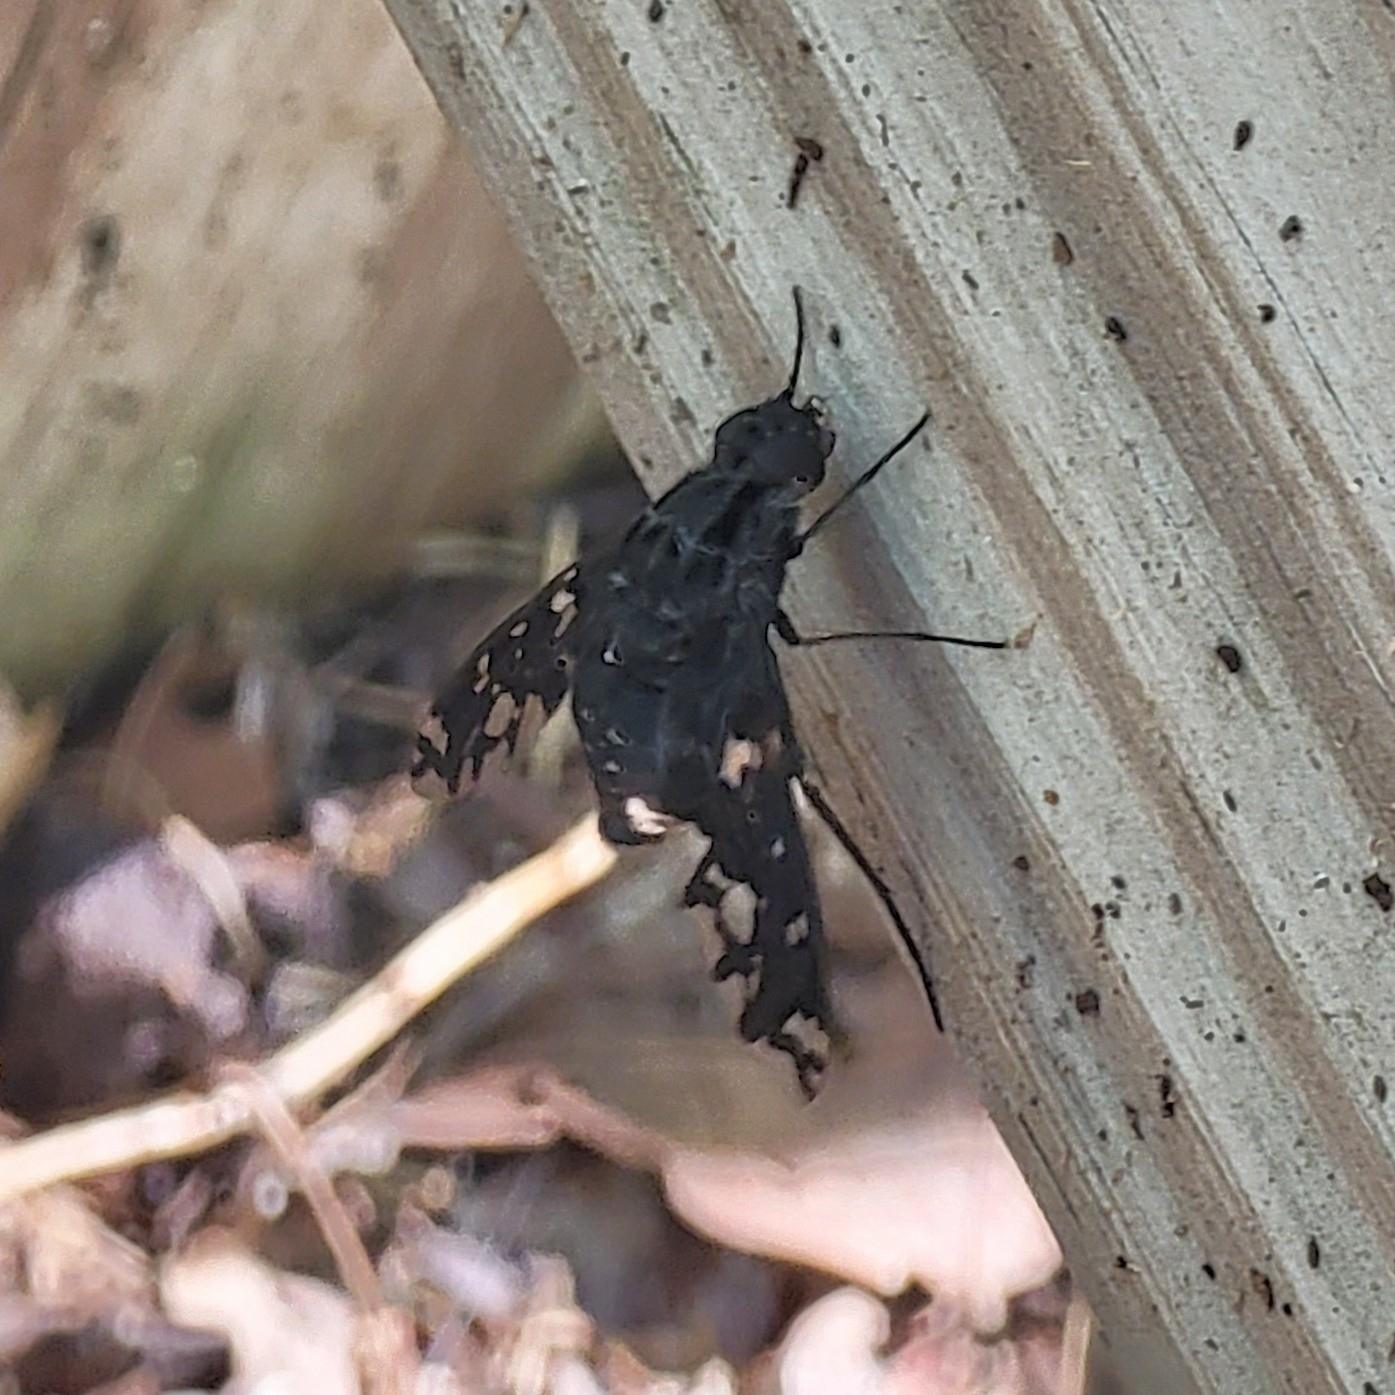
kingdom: Animalia
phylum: Arthropoda
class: Insecta
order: Diptera
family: Bombyliidae
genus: Xenox
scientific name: Xenox tigrinus
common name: Tiger bee fly
